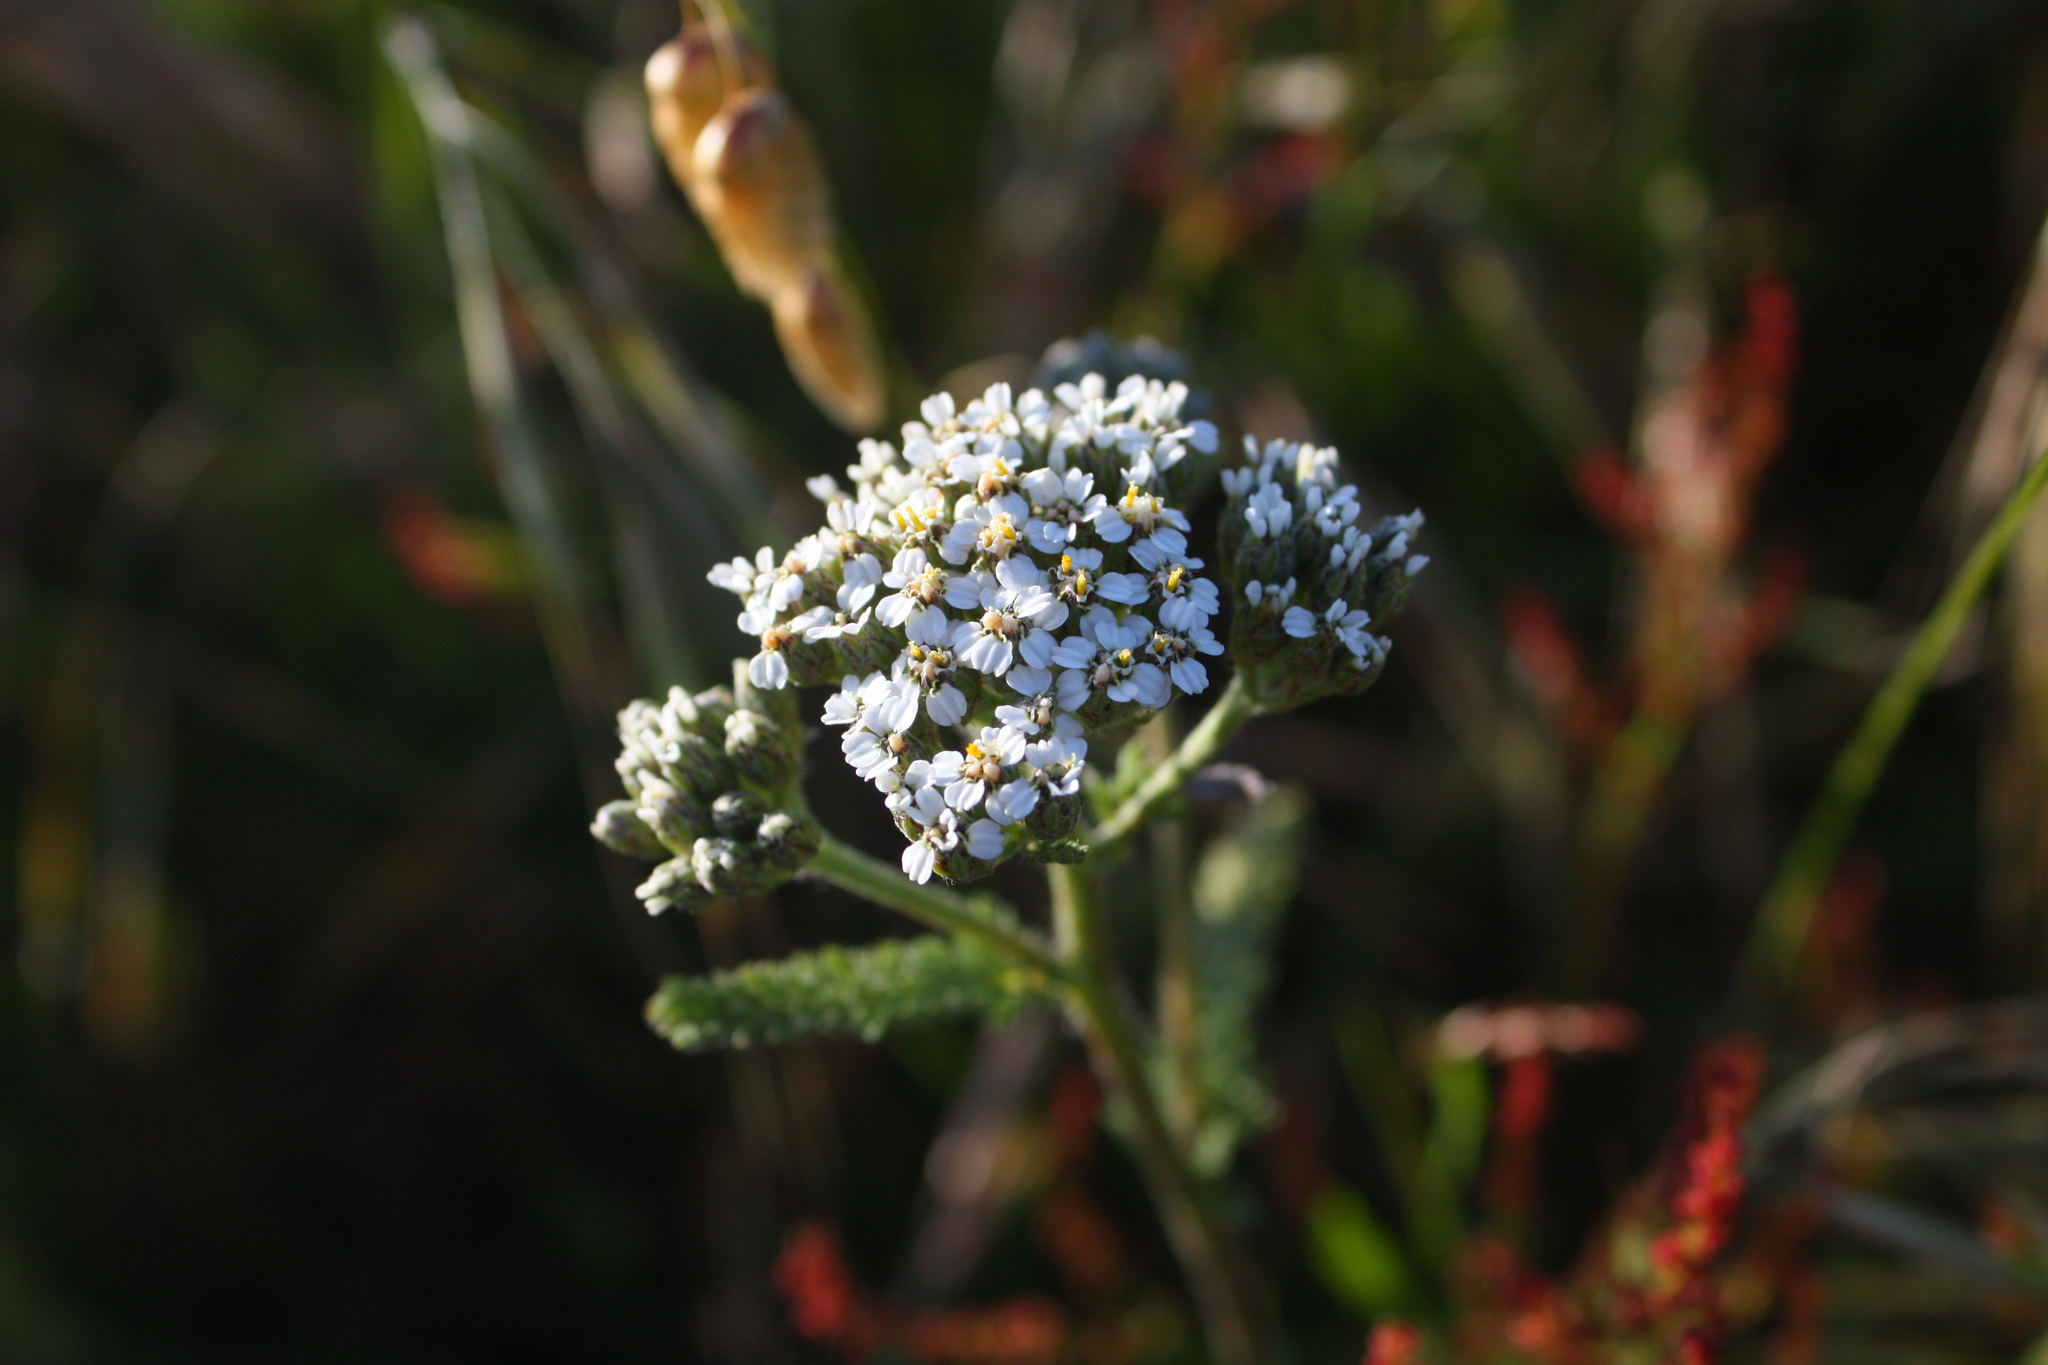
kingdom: Plantae
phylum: Tracheophyta
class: Magnoliopsida
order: Asterales
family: Asteraceae
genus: Achillea
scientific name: Achillea millefolium
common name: Yarrow
